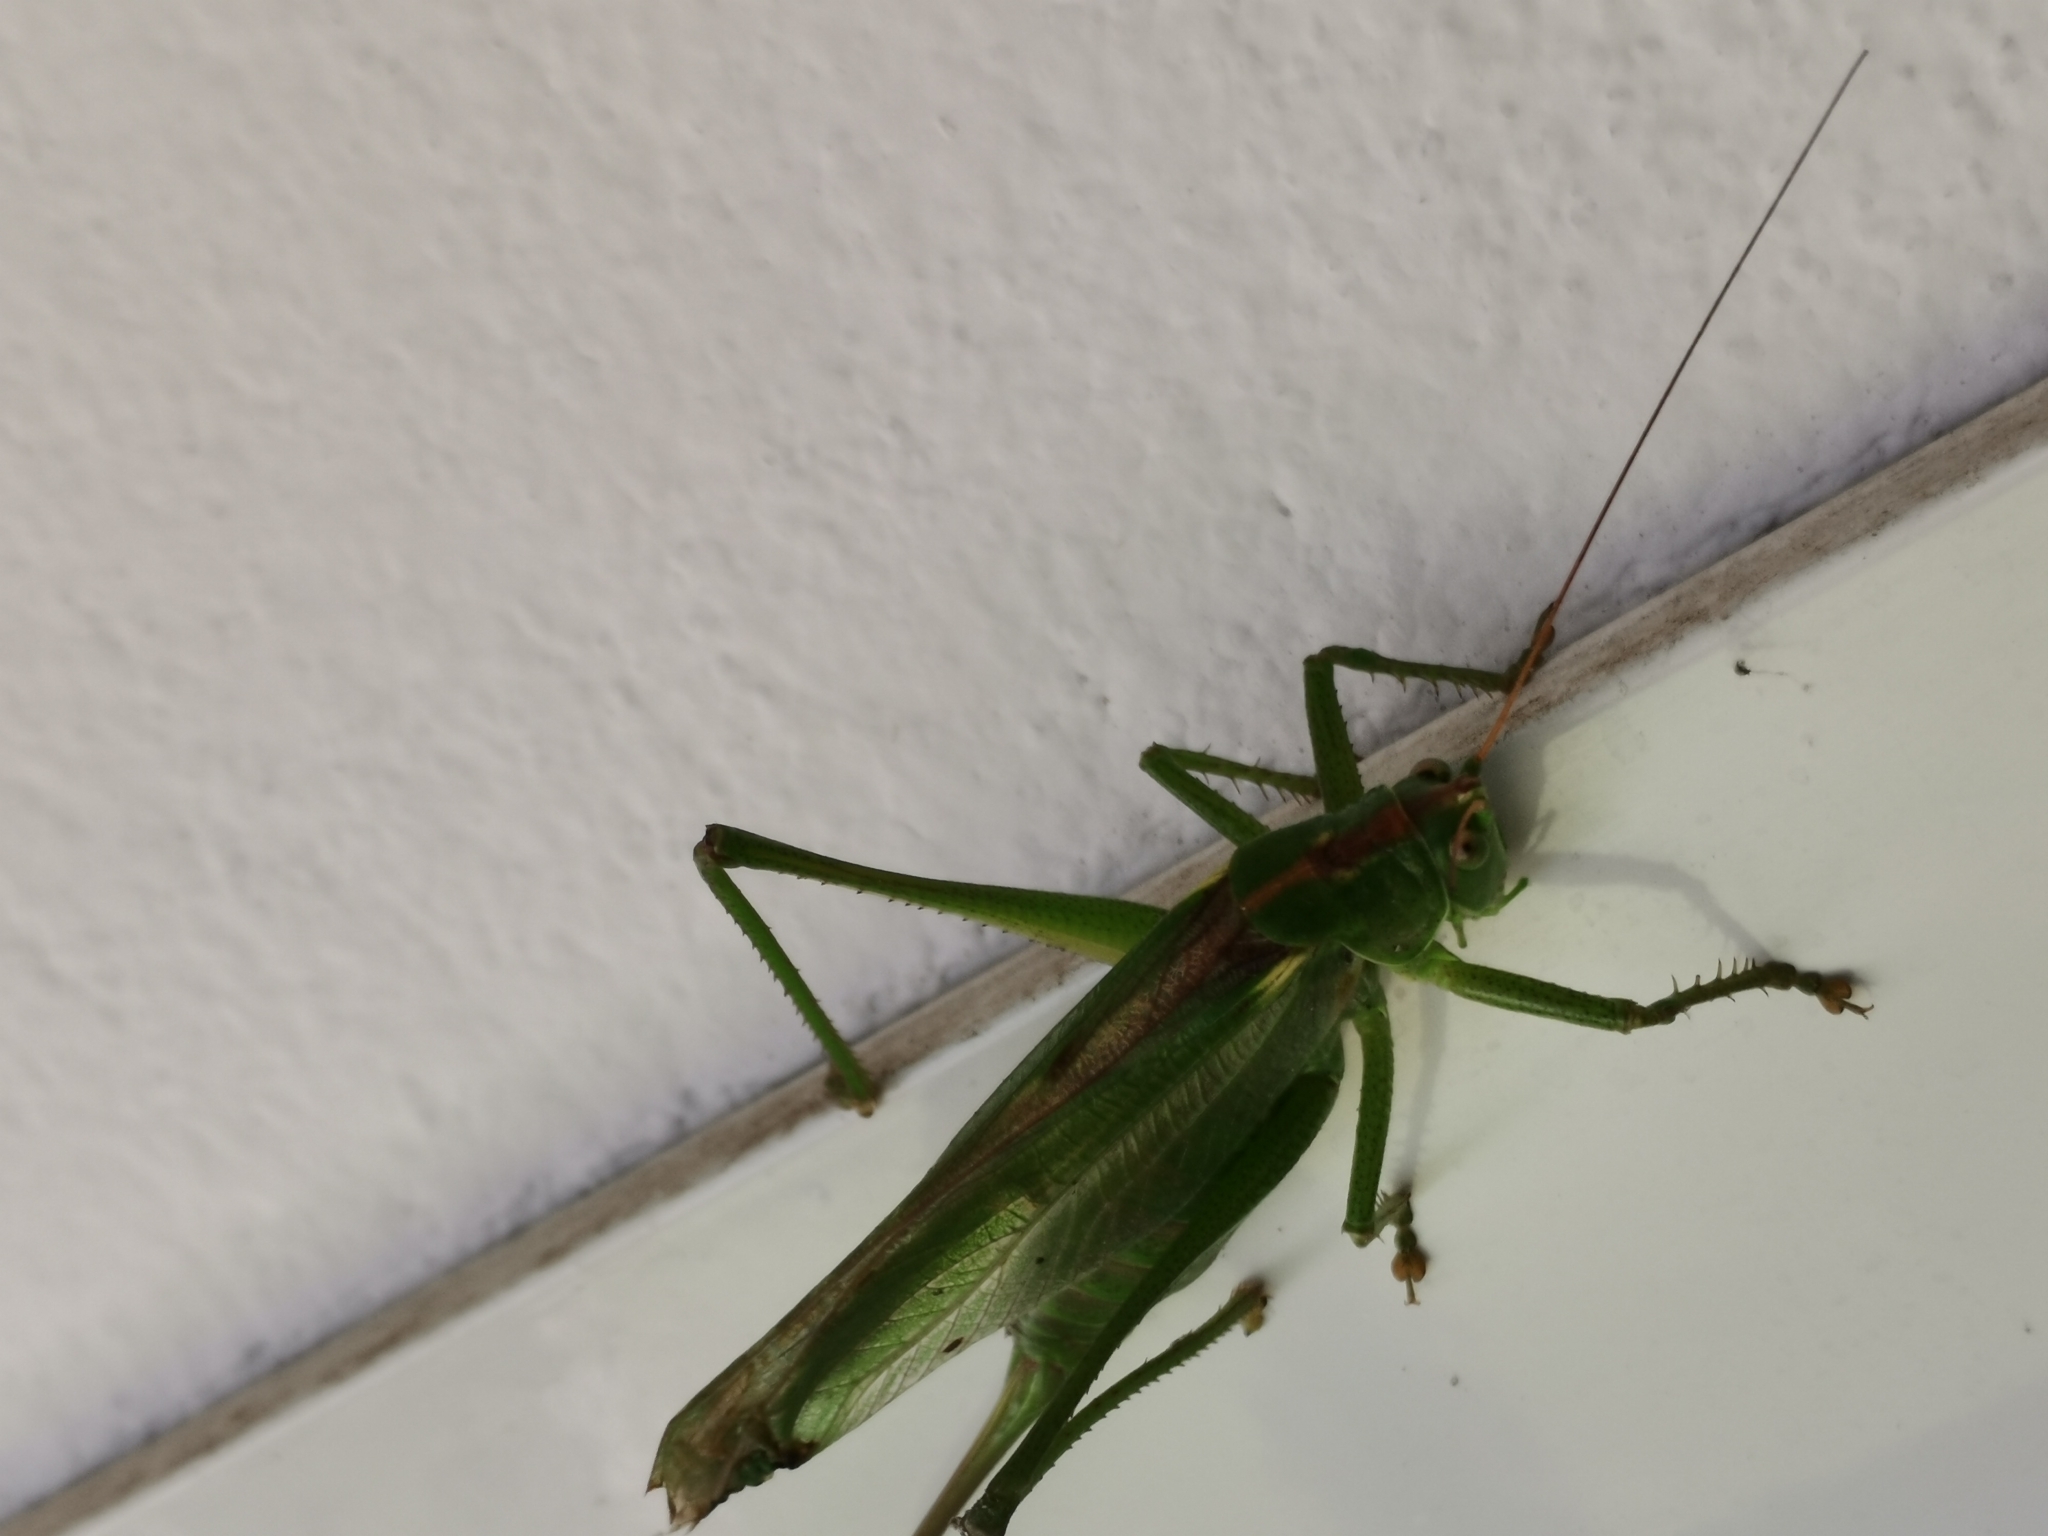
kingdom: Animalia
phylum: Arthropoda
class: Insecta
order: Orthoptera
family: Tettigoniidae
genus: Tettigonia
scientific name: Tettigonia cantans
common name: Upland green bush-cricket
